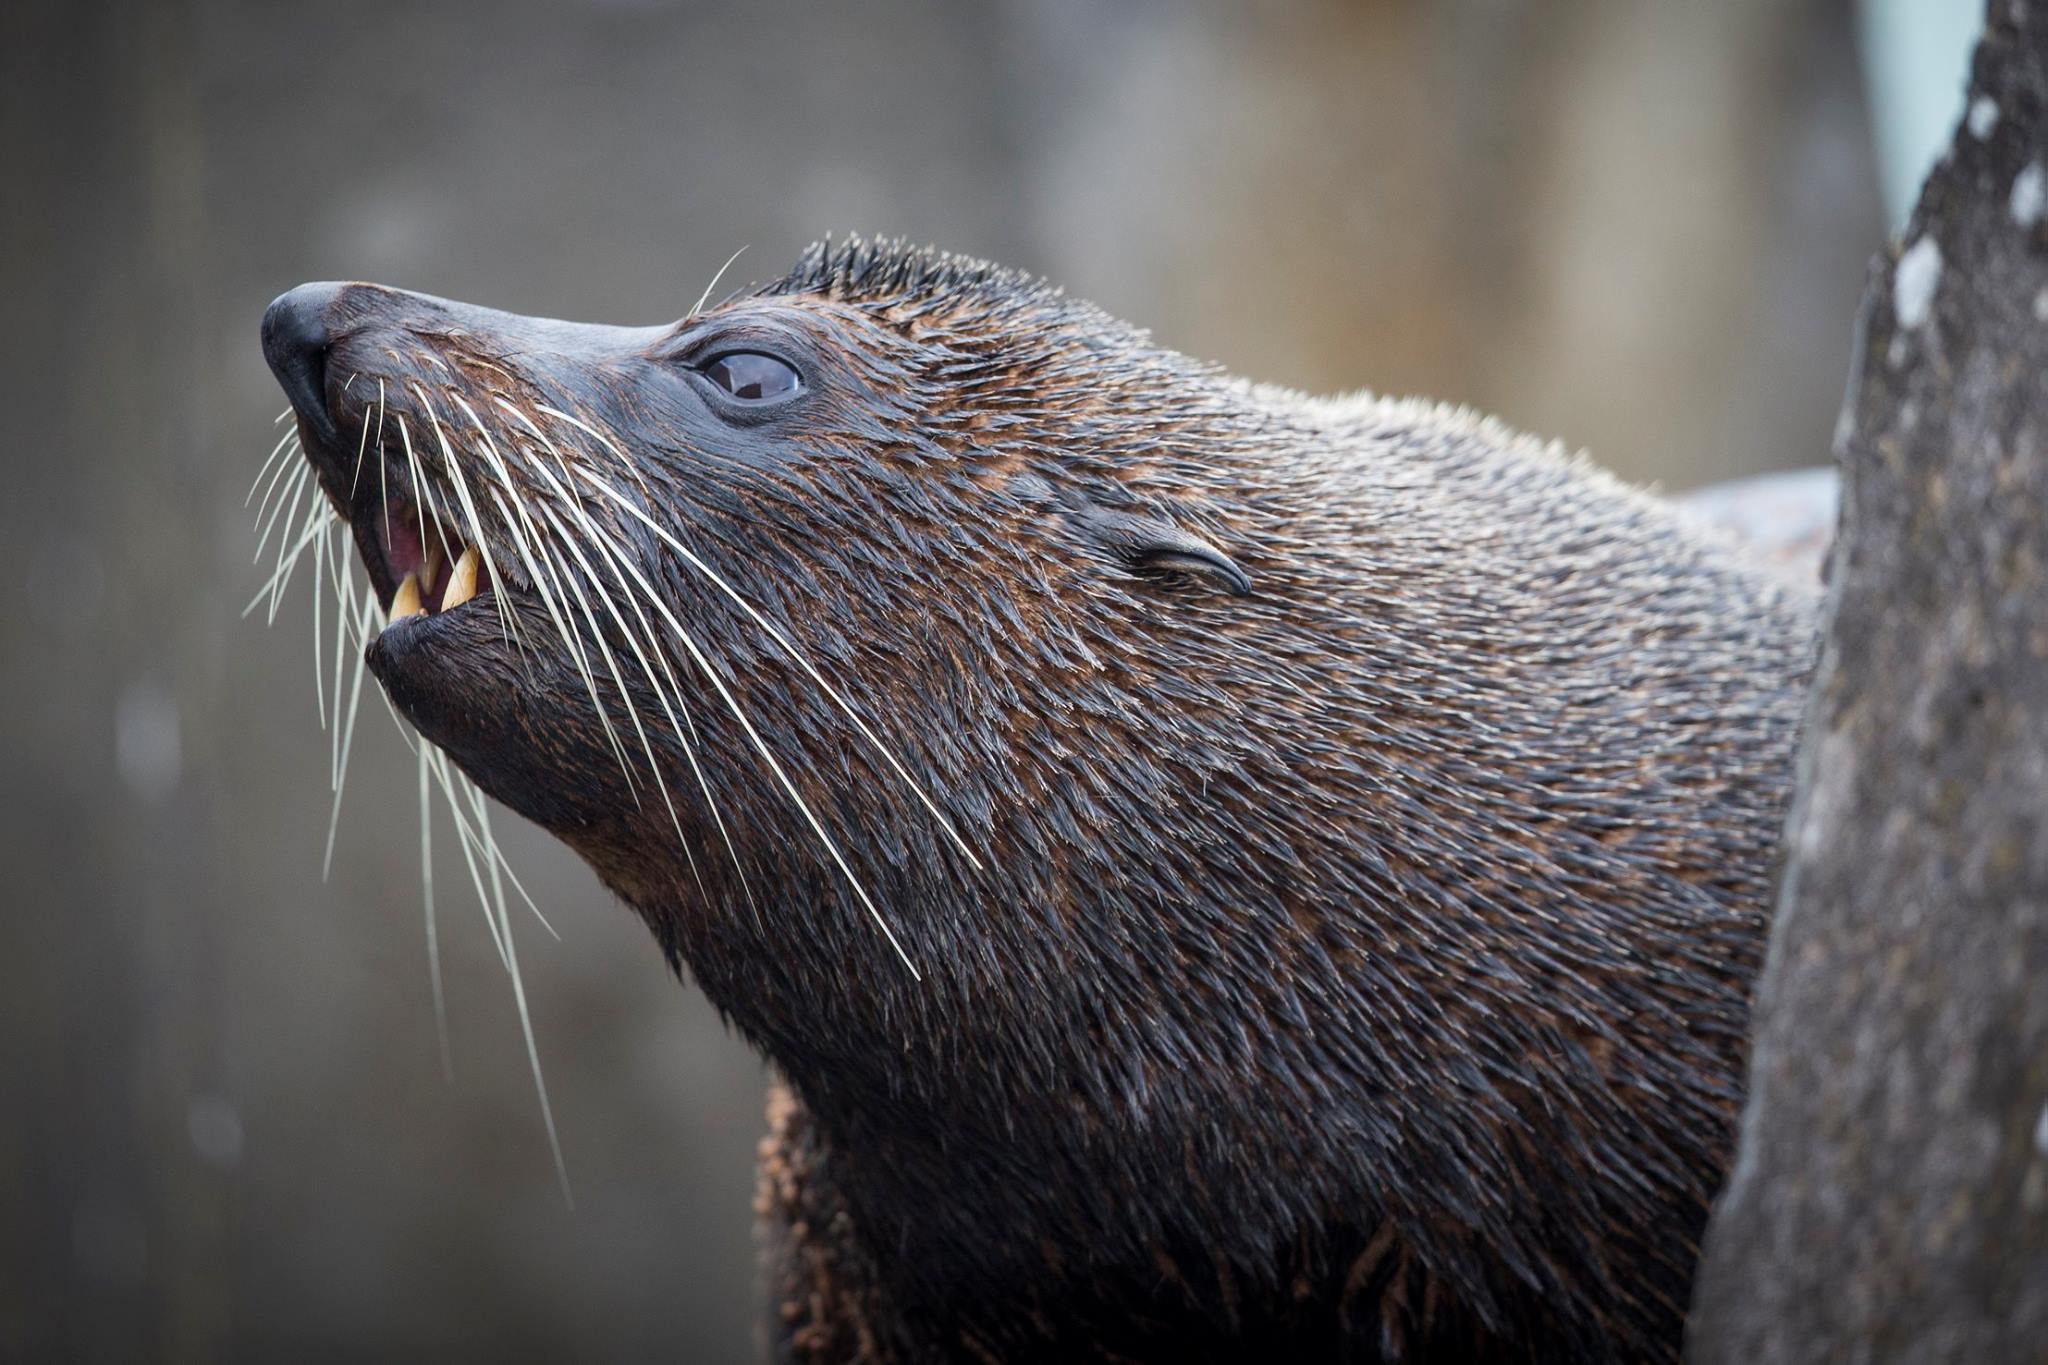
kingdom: Animalia
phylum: Chordata
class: Mammalia
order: Carnivora
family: Otariidae
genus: Arctocephalus
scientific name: Arctocephalus forsteri
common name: New zealand fur seal
